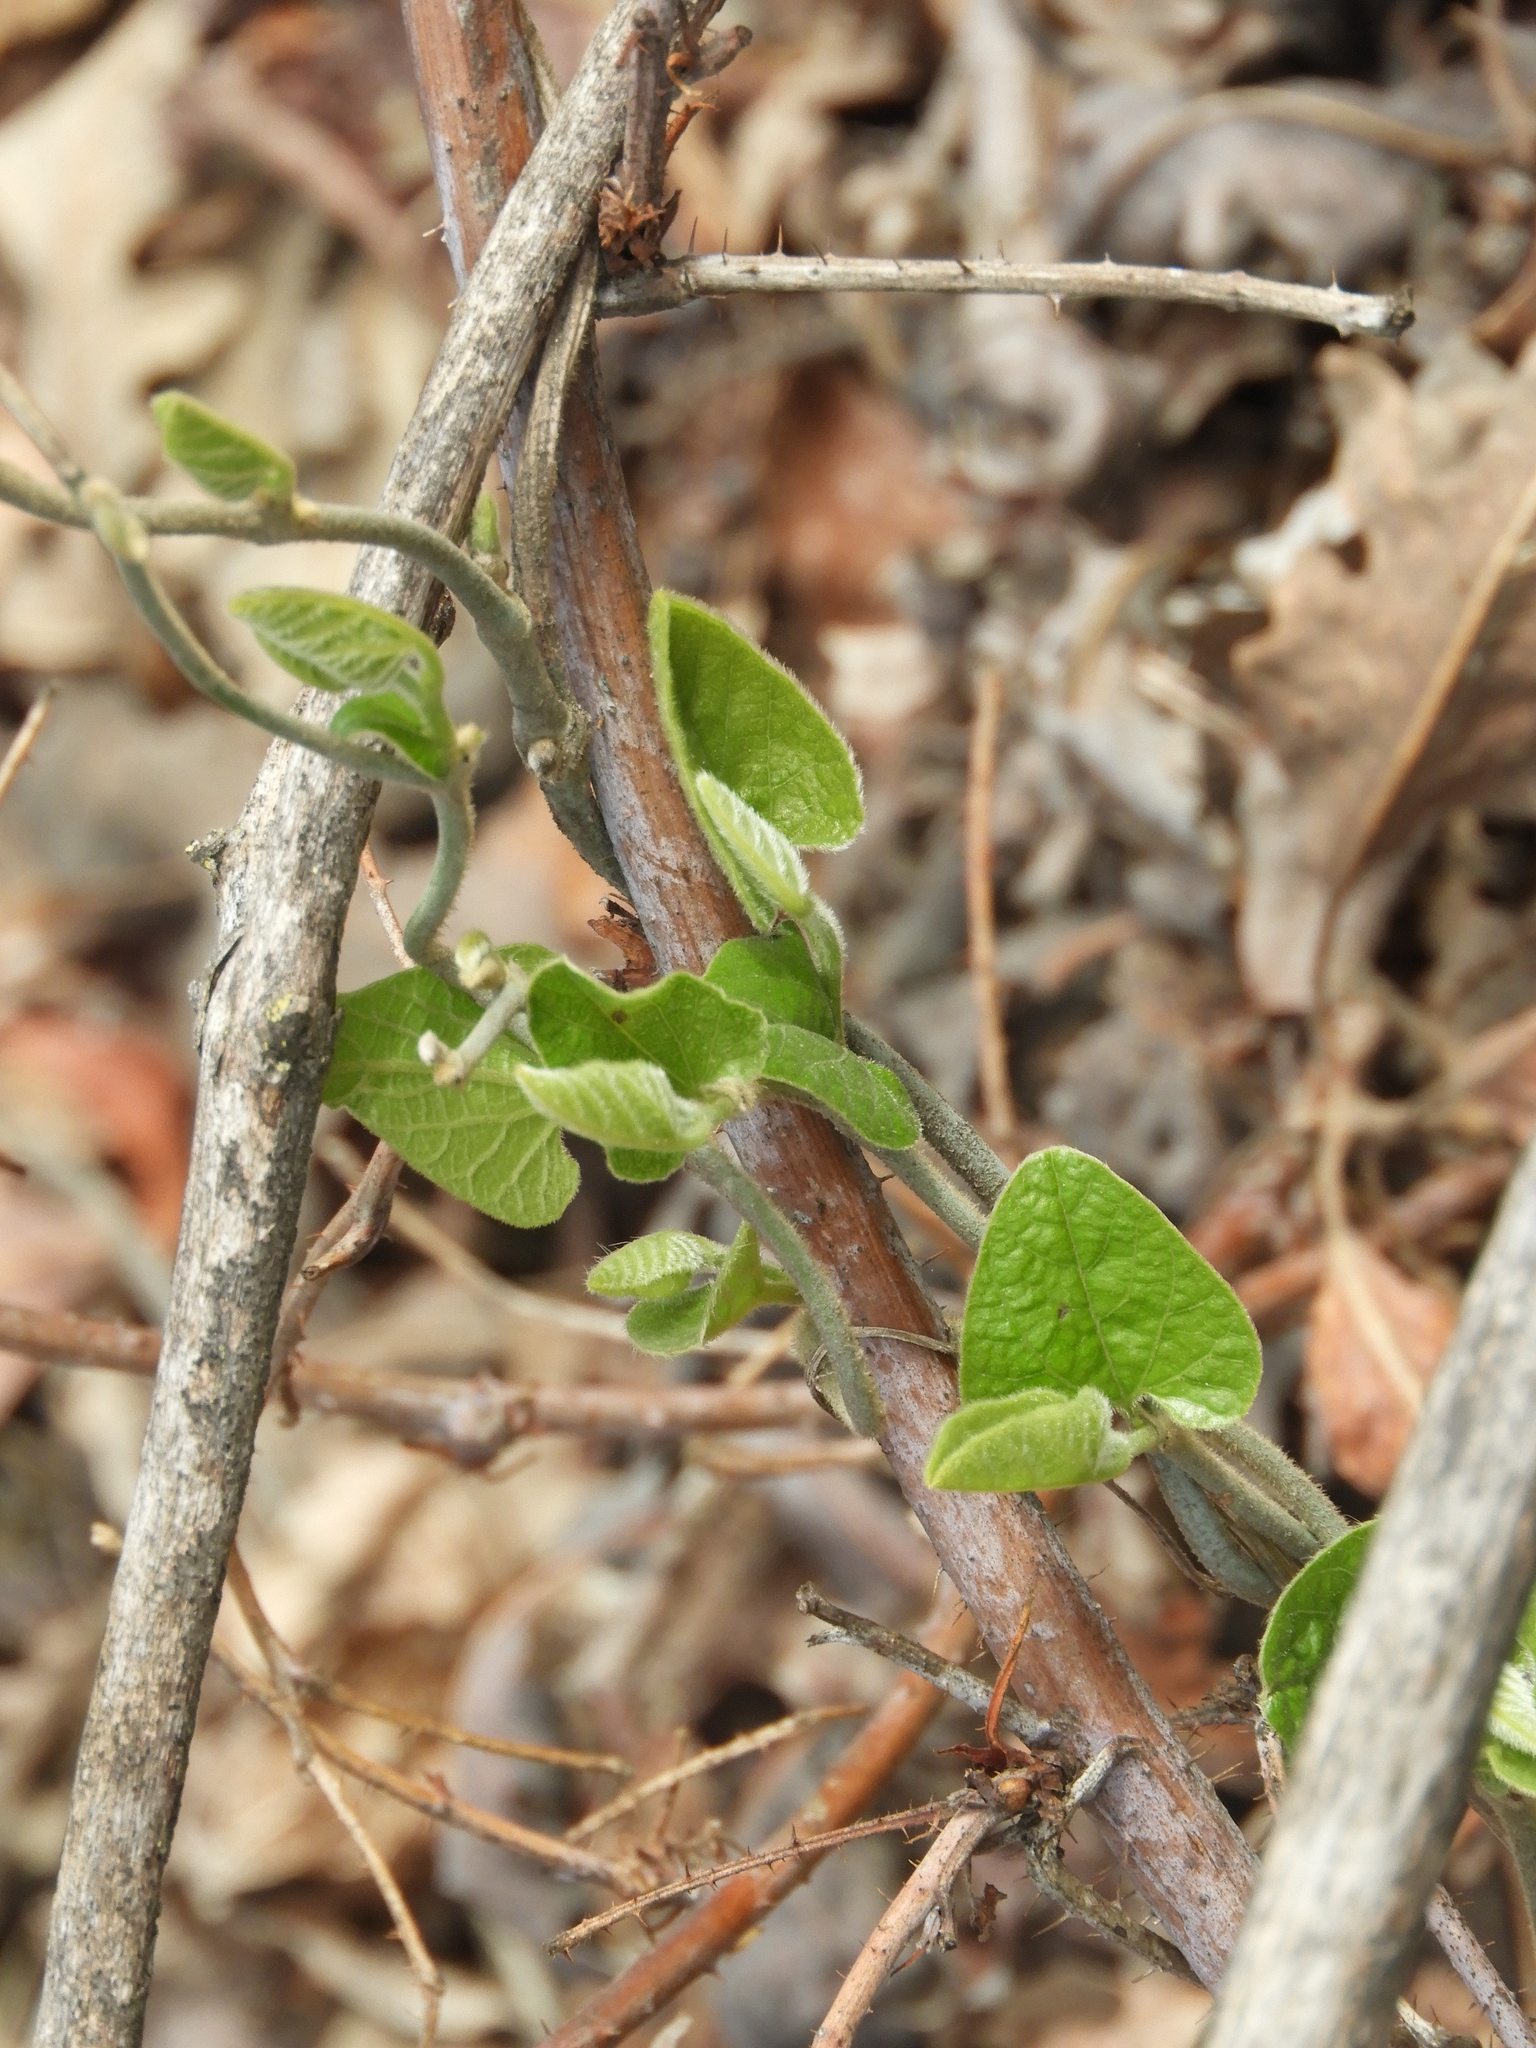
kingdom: Plantae
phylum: Tracheophyta
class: Magnoliopsida
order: Piperales
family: Aristolochiaceae
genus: Isotrema
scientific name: Isotrema californicum
